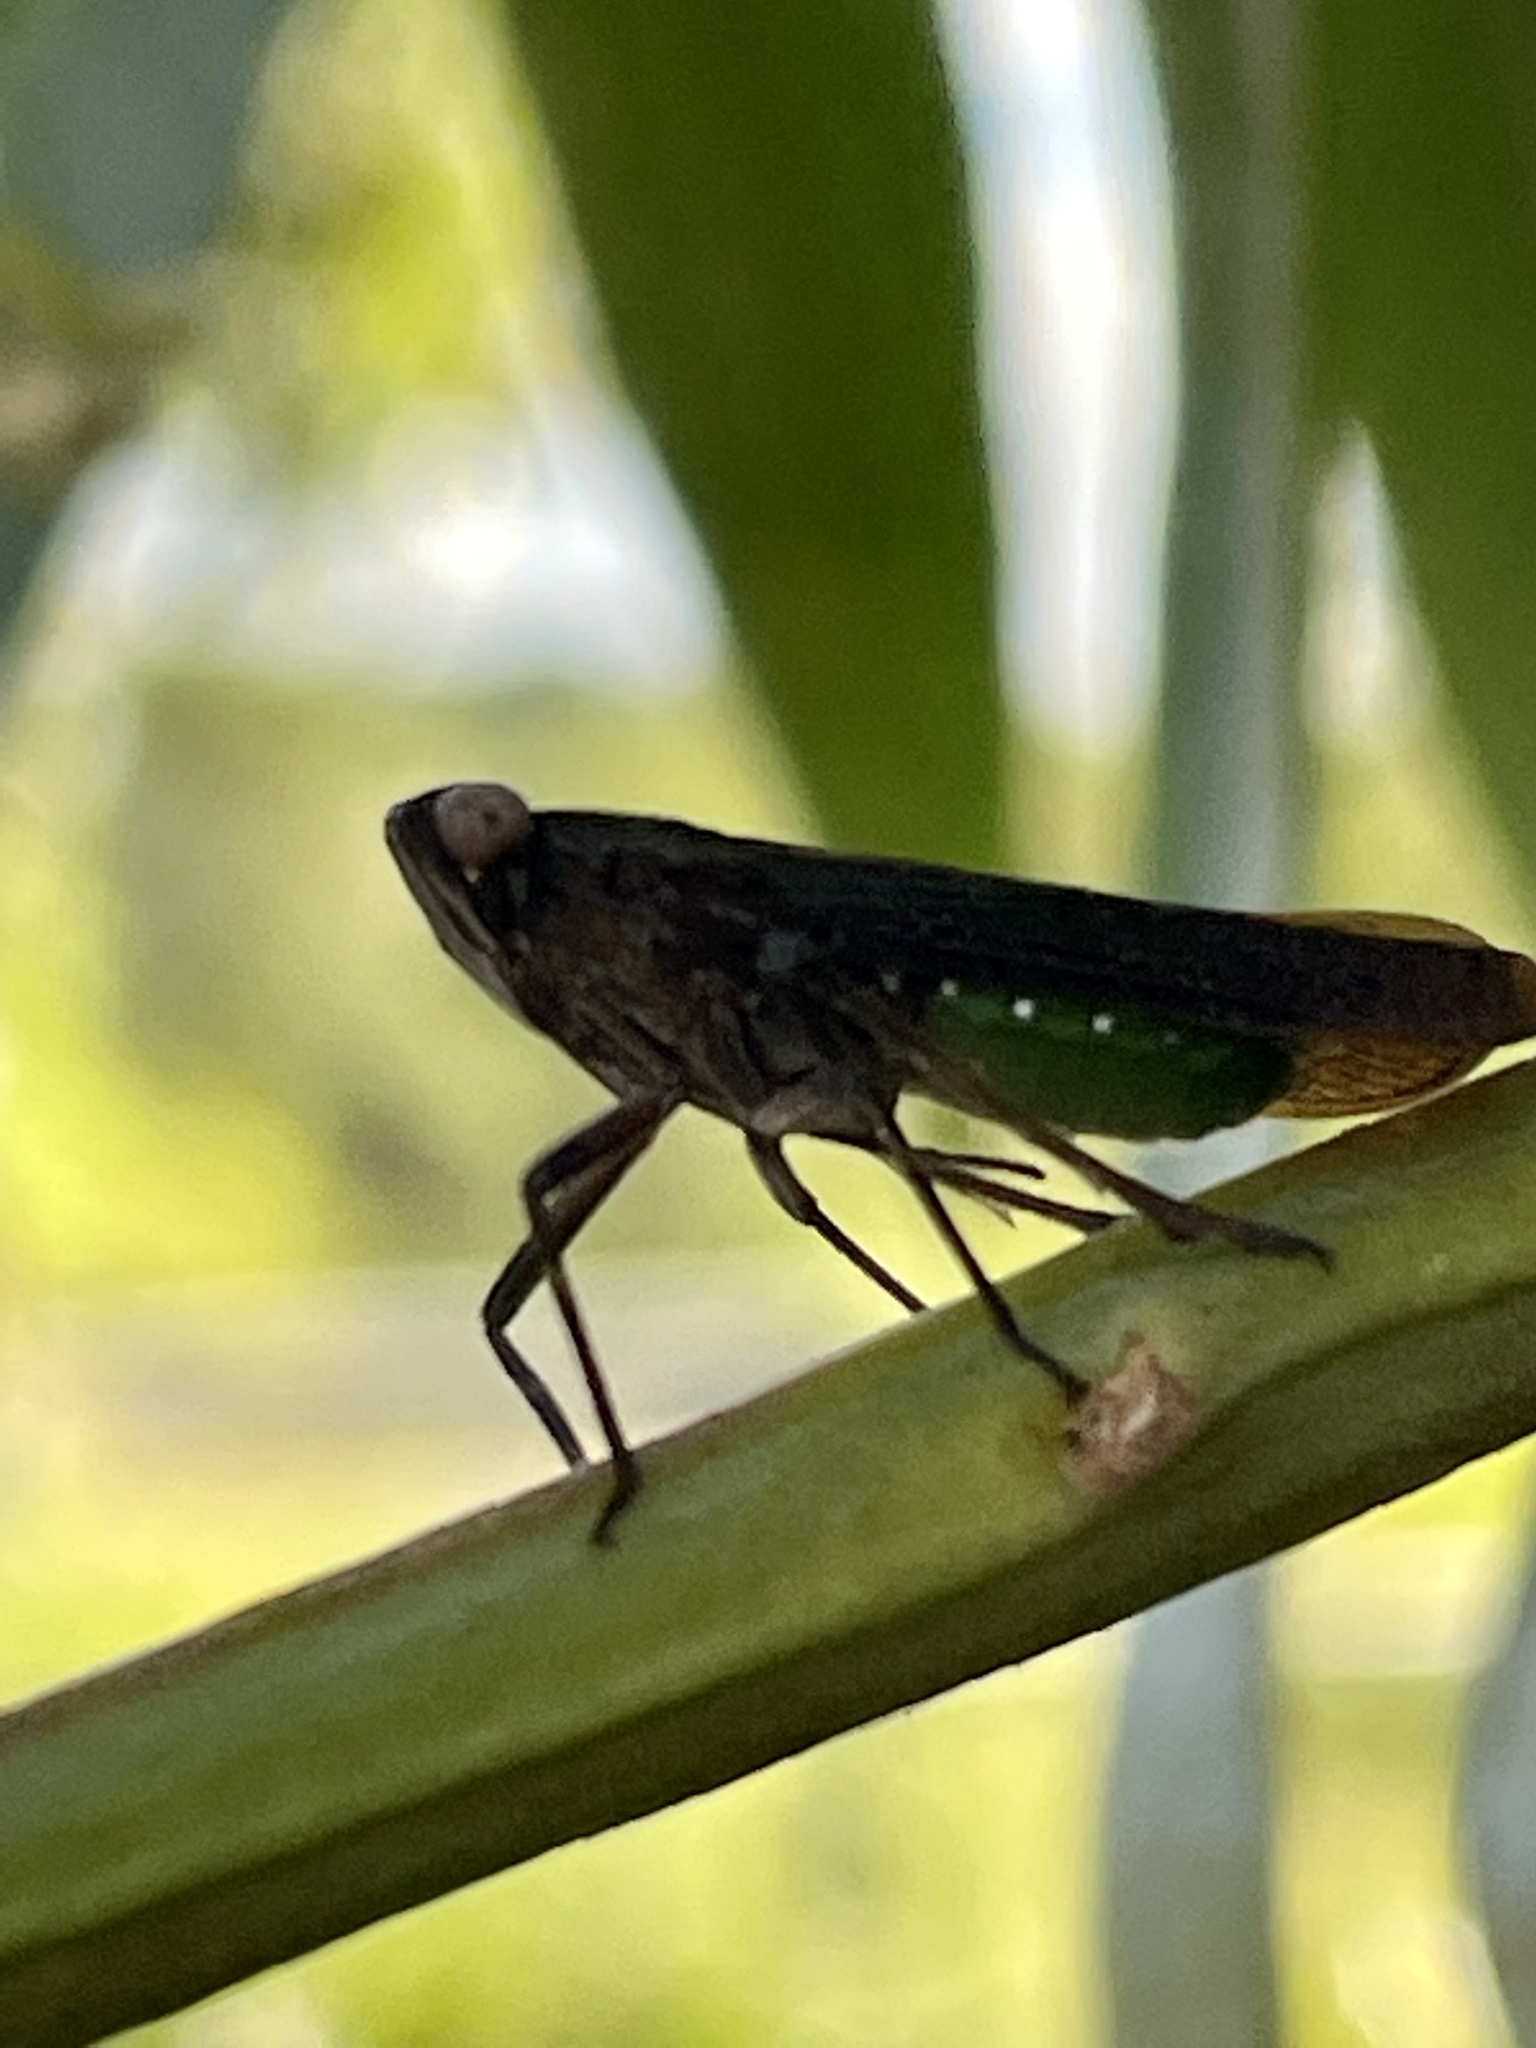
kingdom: Animalia
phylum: Arthropoda
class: Insecta
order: Hemiptera
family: Fulgoridae
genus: Desudaba
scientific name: Desudaba psittacus
